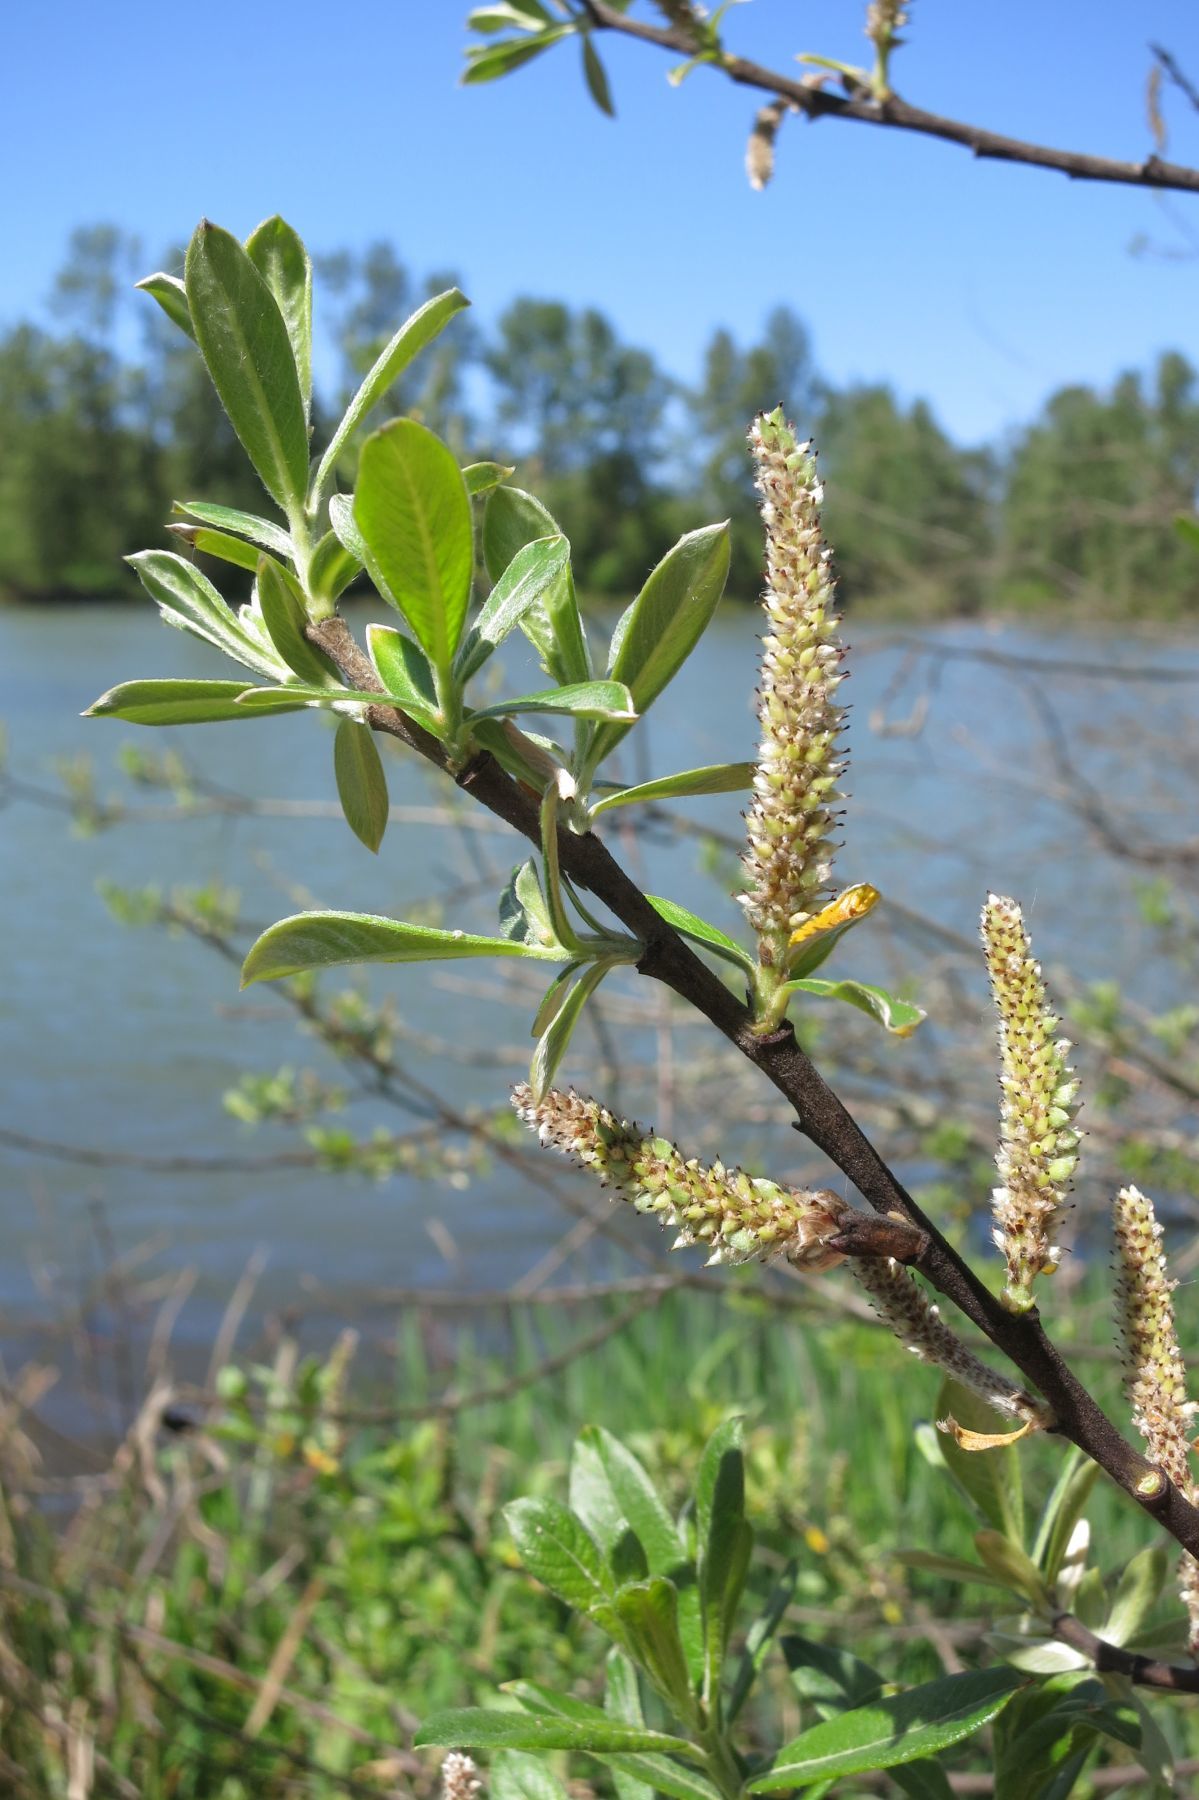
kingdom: Plantae
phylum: Tracheophyta
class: Magnoliopsida
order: Malpighiales
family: Salicaceae
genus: Salix
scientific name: Salix sitchensis
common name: Sitka willow
